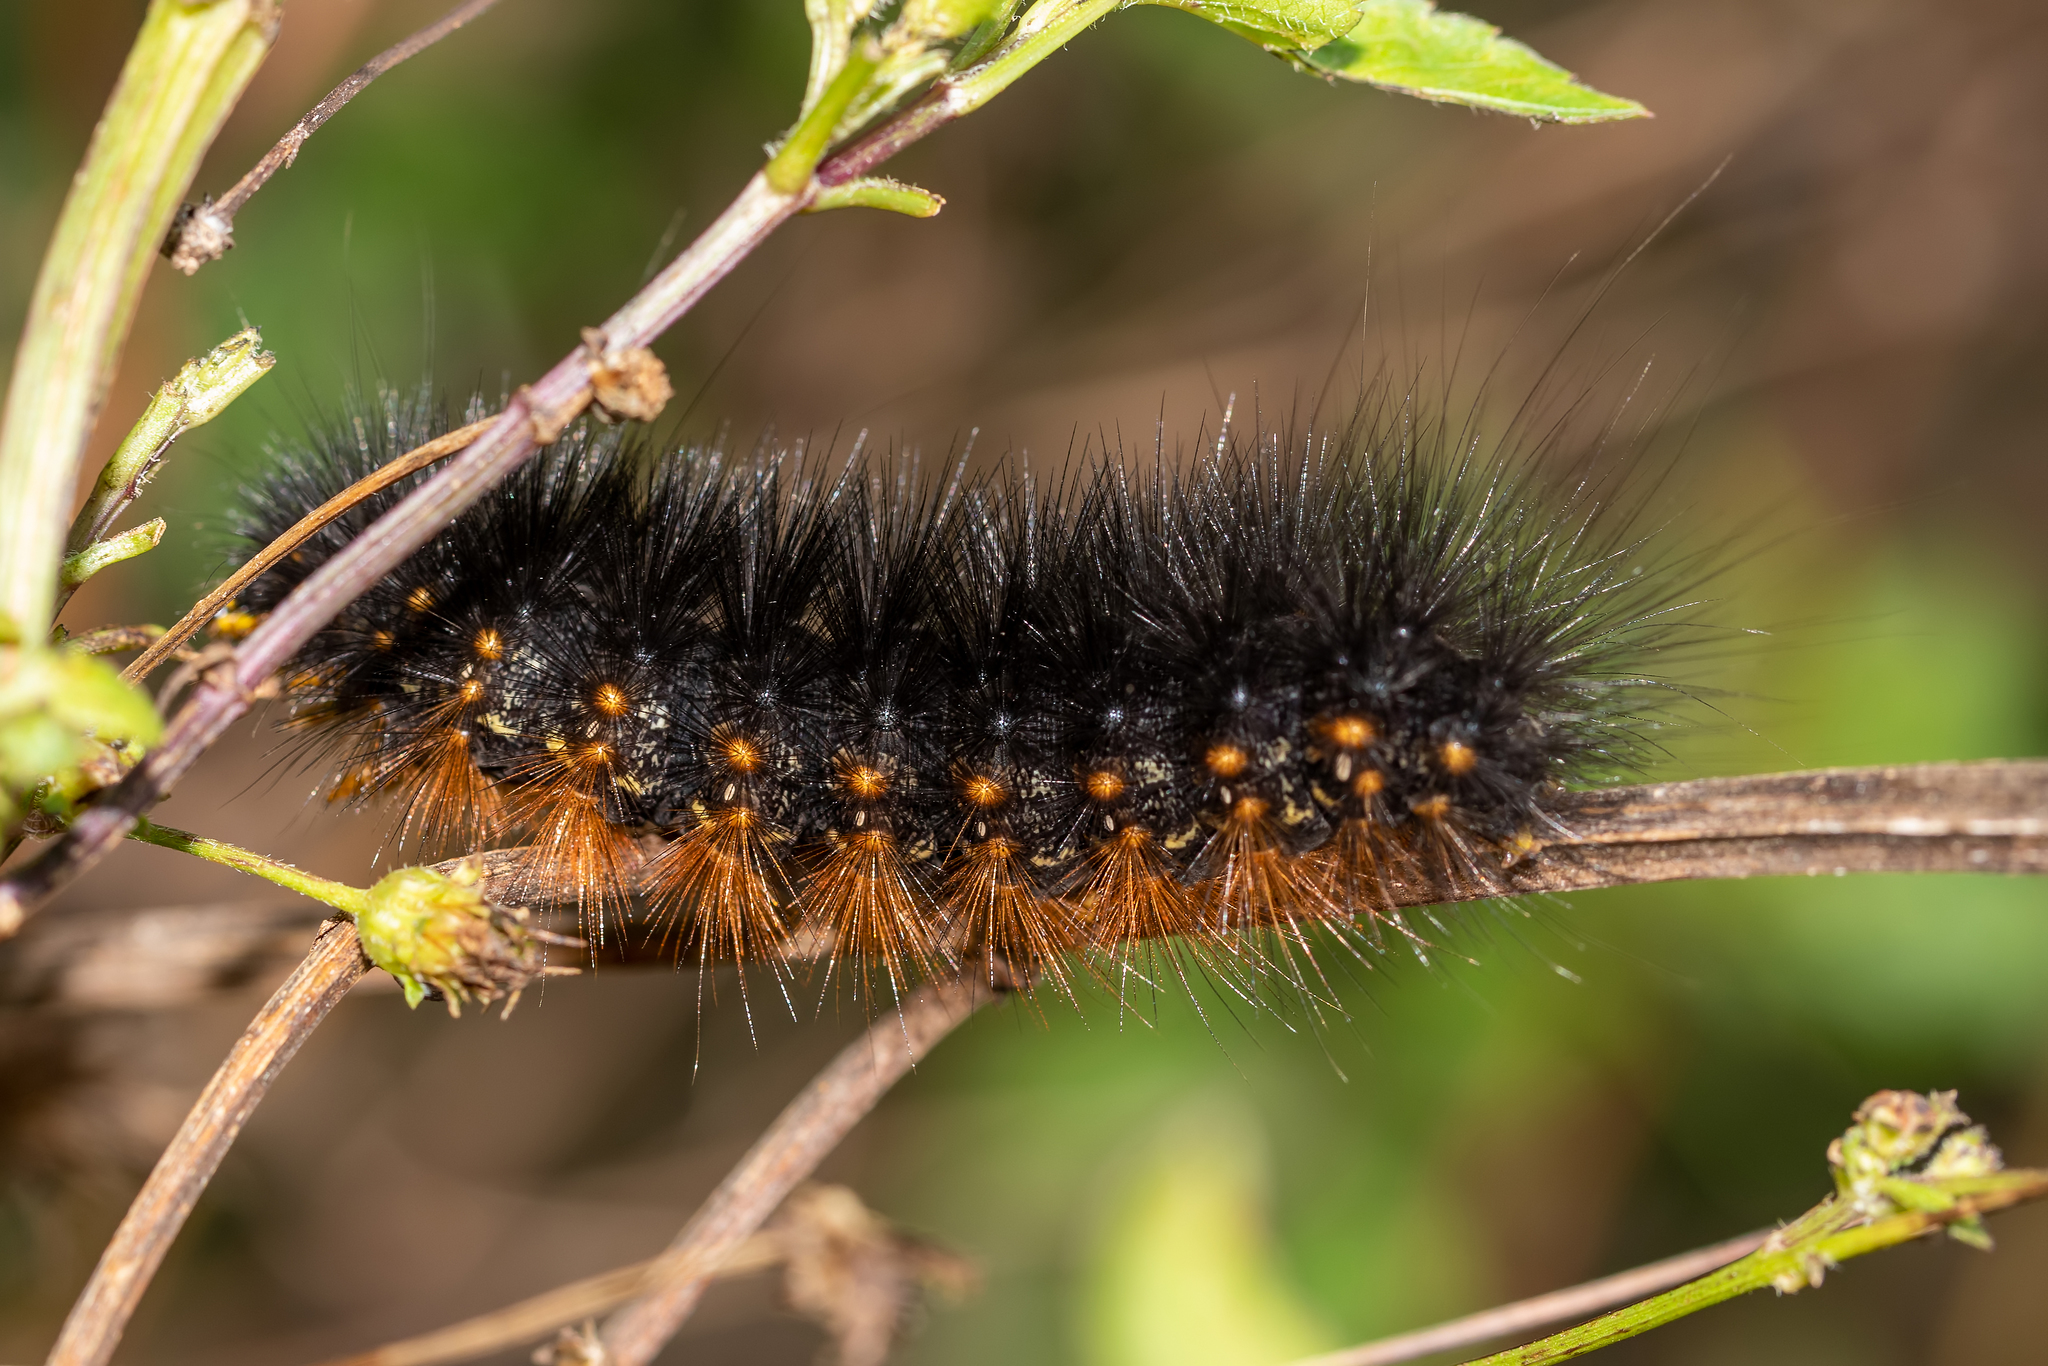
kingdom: Animalia
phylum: Arthropoda
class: Insecta
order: Lepidoptera
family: Erebidae
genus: Estigmene
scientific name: Estigmene acrea
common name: Salt marsh moth
